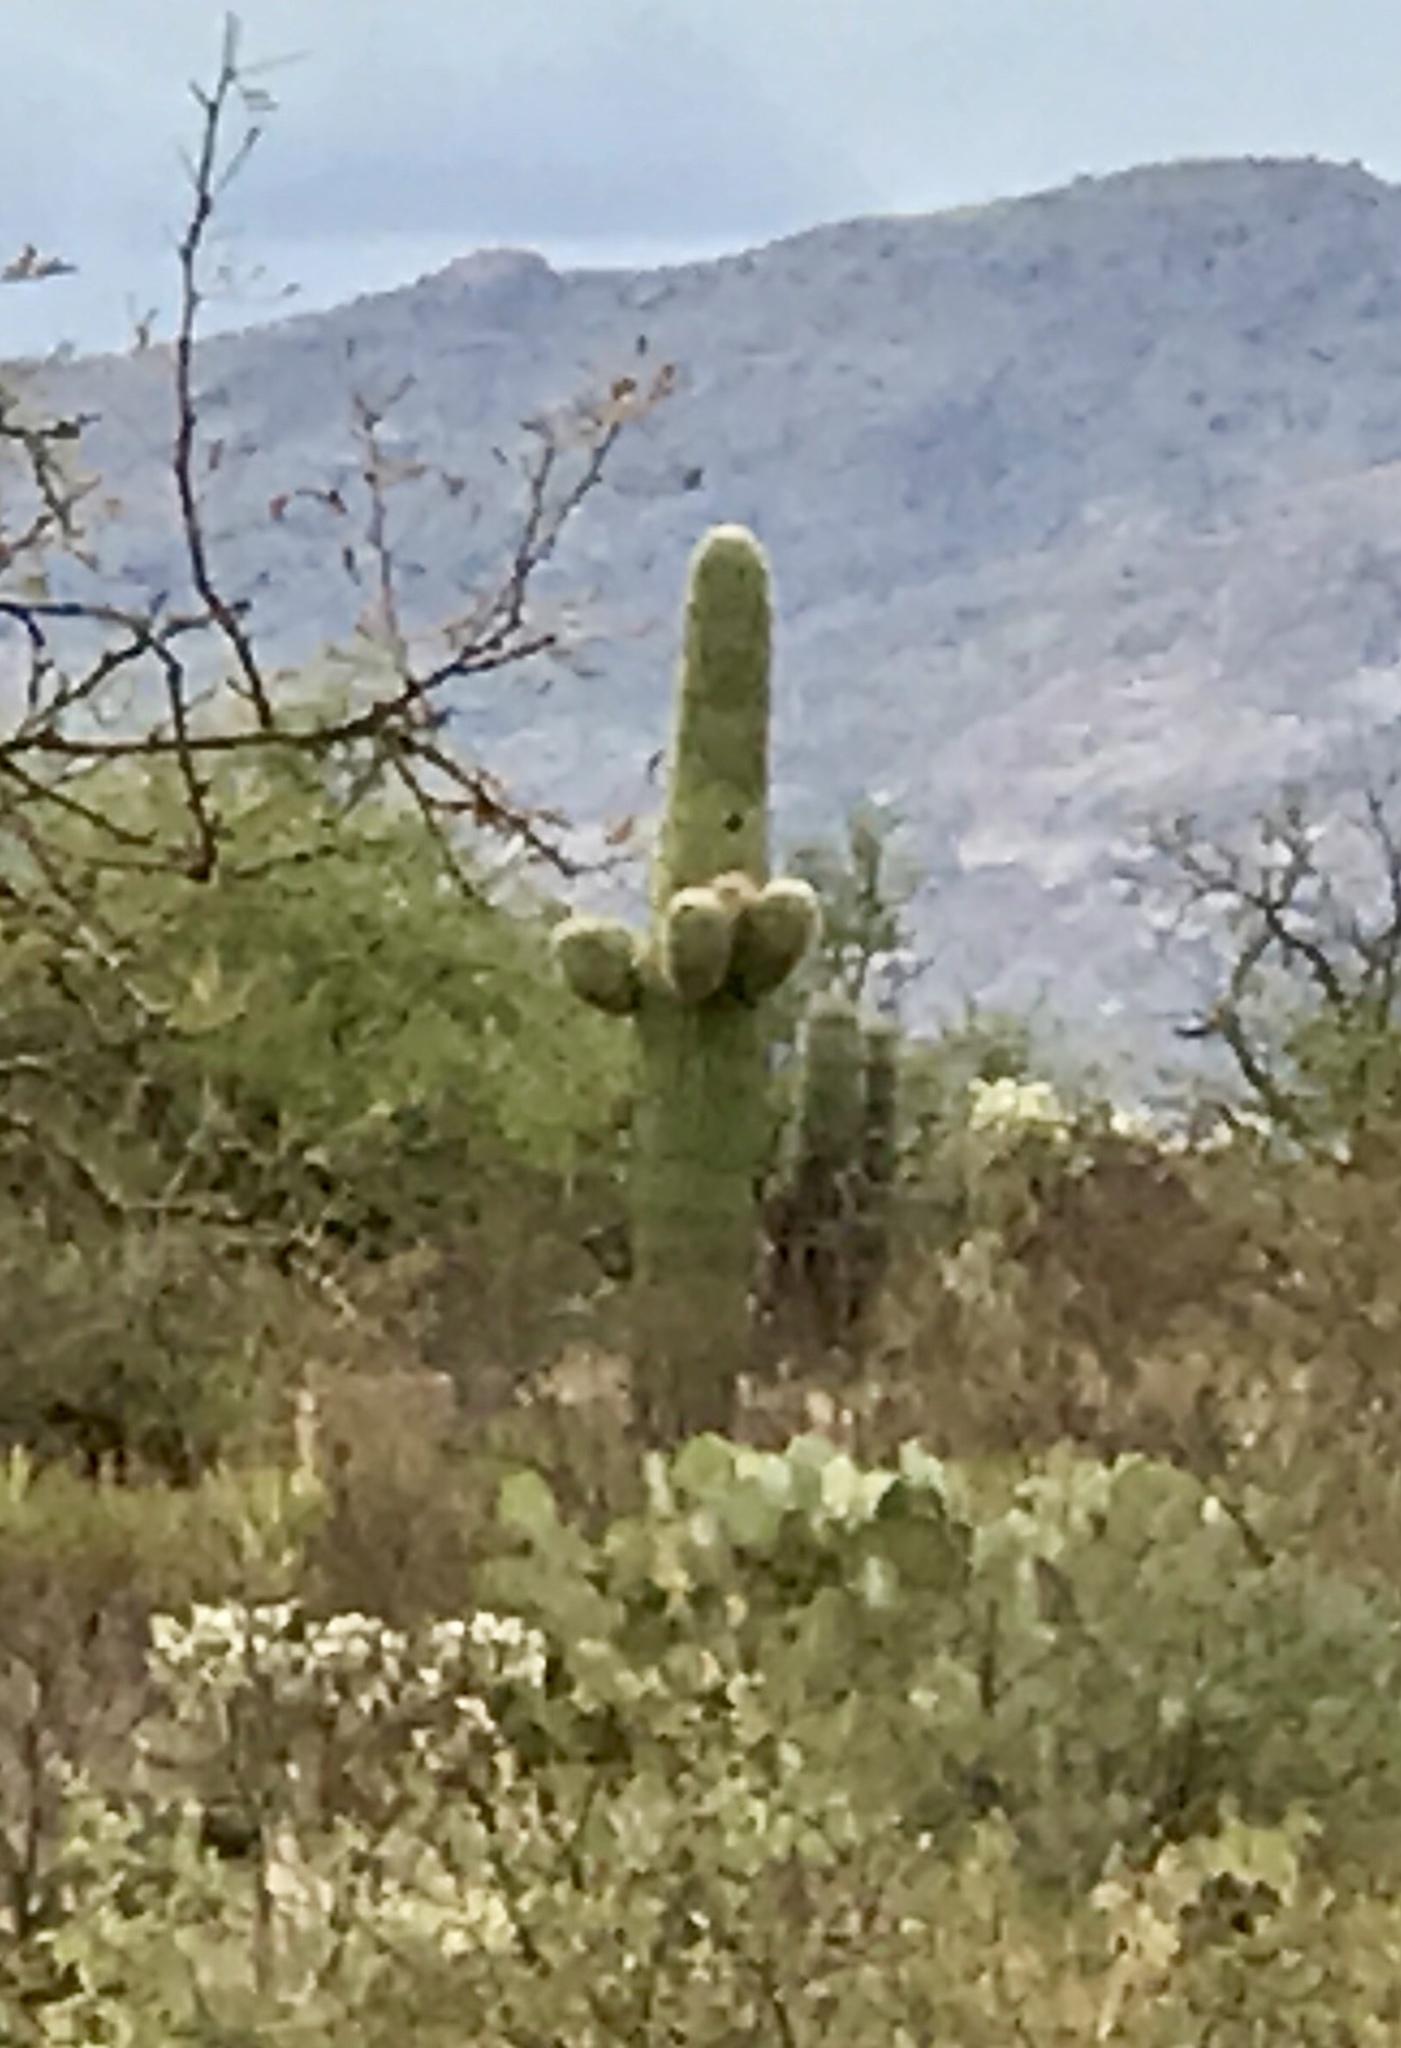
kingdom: Plantae
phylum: Tracheophyta
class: Magnoliopsida
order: Caryophyllales
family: Cactaceae
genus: Carnegiea
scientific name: Carnegiea gigantea
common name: Saguaro
